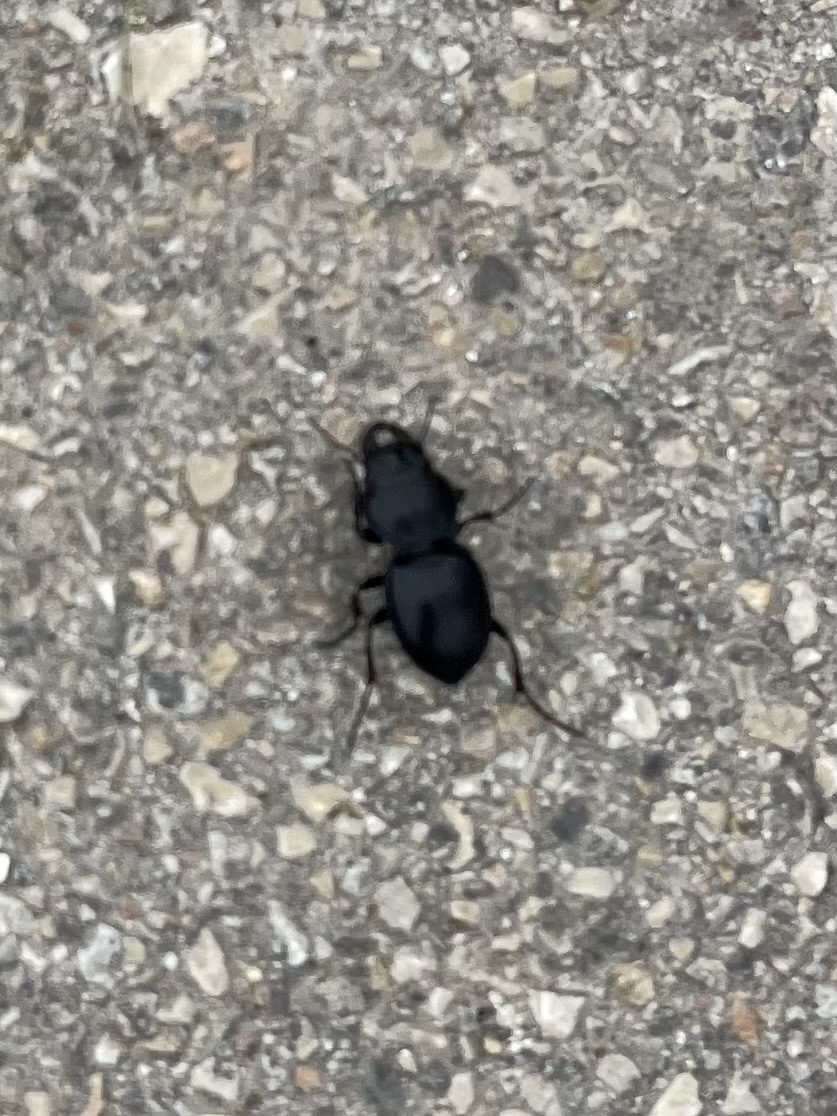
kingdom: Animalia
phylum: Arthropoda
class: Insecta
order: Coleoptera
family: Carabidae
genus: Pasimachus
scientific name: Pasimachus californicus
